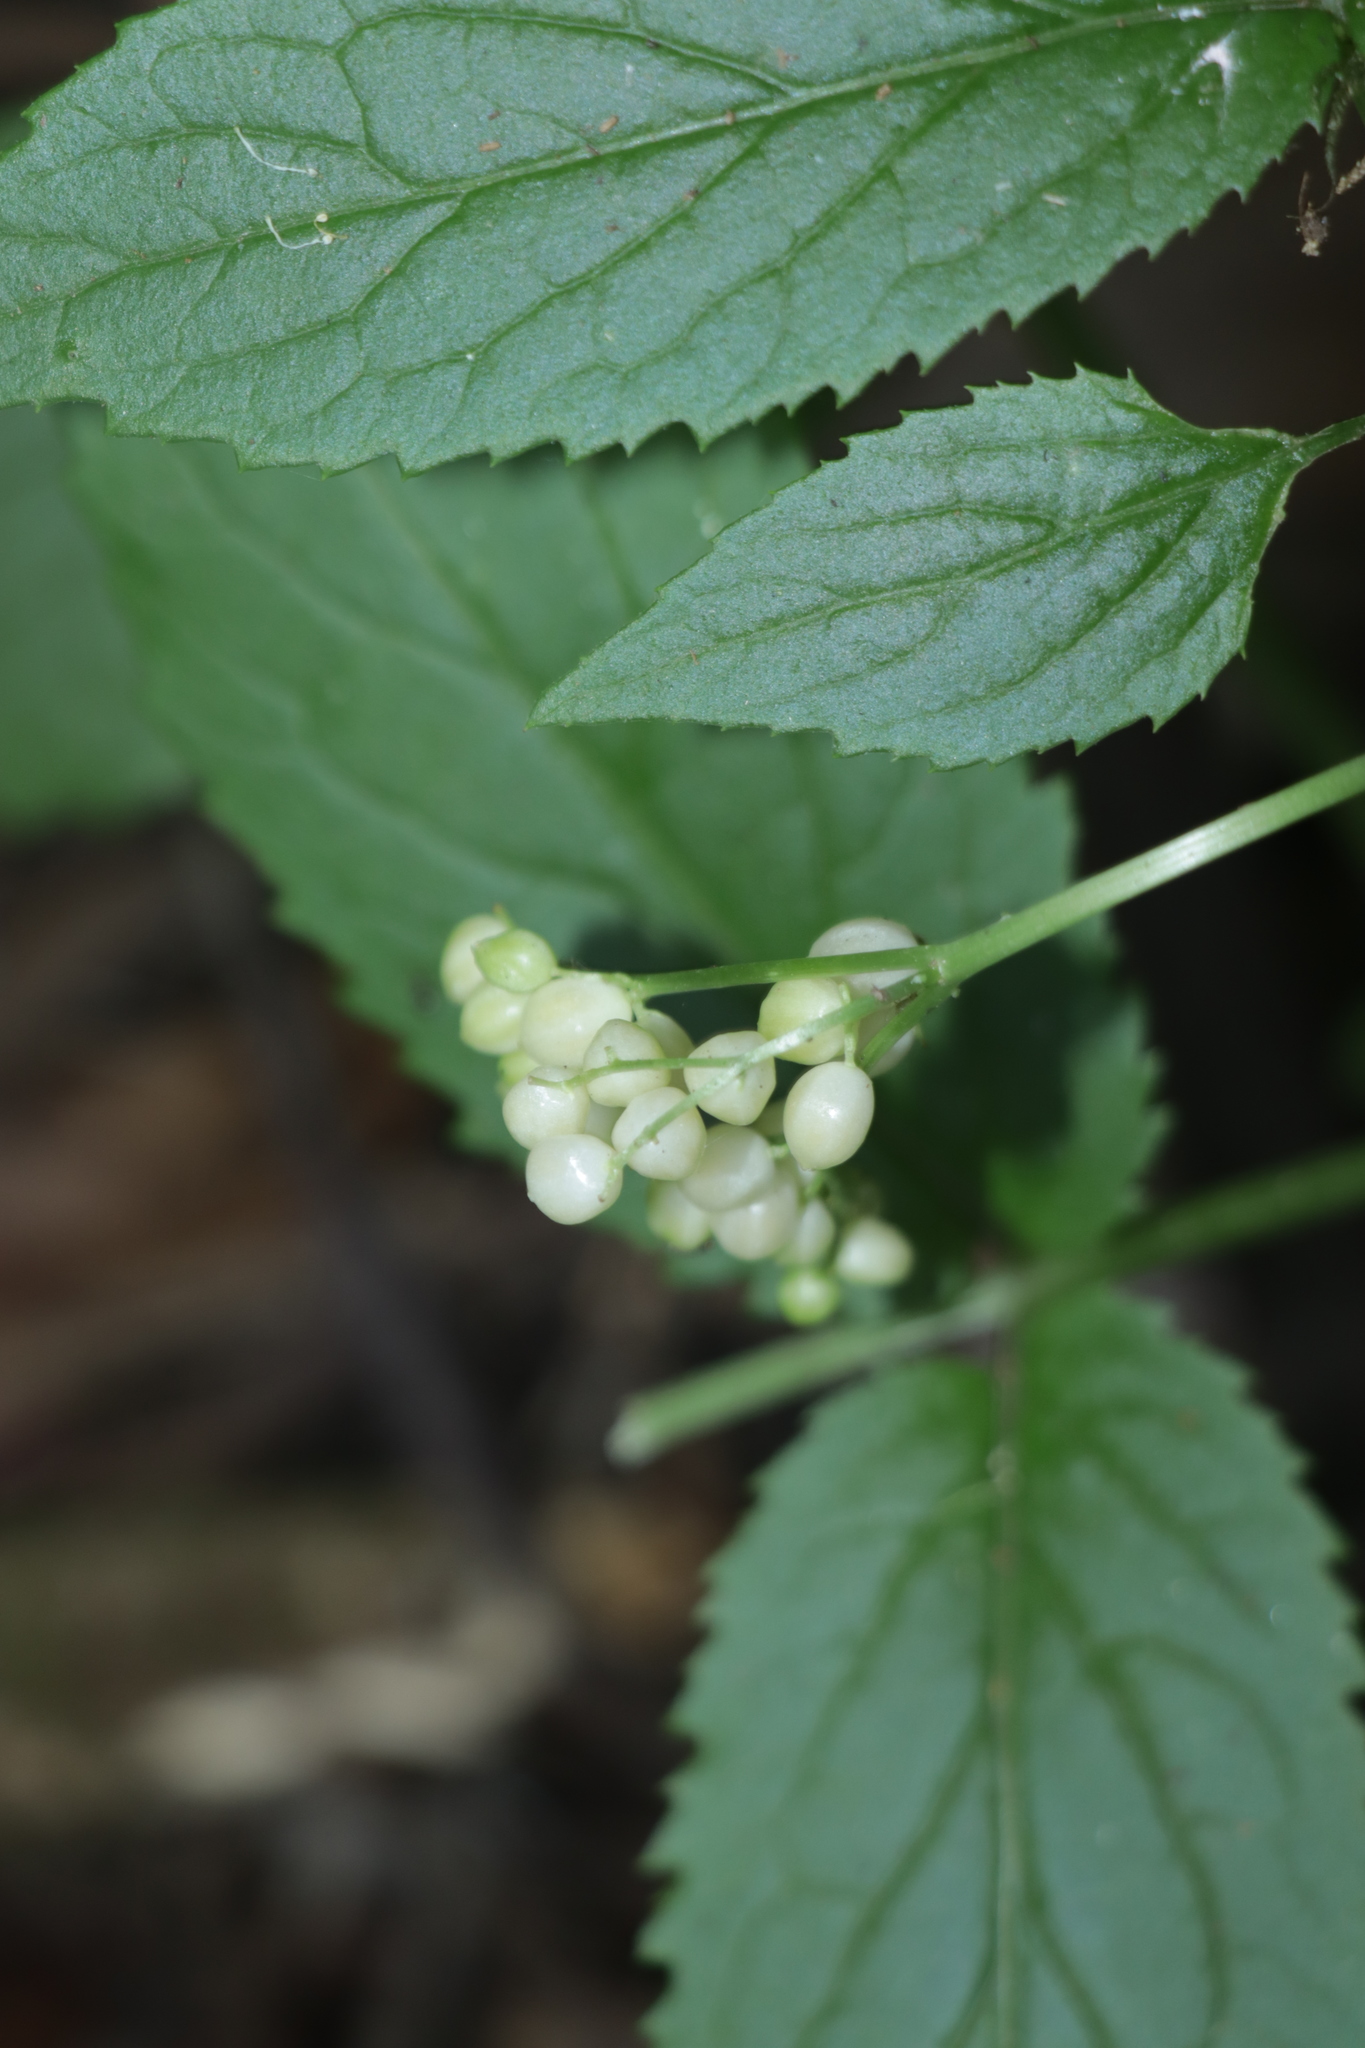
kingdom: Plantae
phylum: Tracheophyta
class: Magnoliopsida
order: Dipsacales
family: Viburnaceae
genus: Sambucus
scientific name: Sambucus gaudichaudiana
